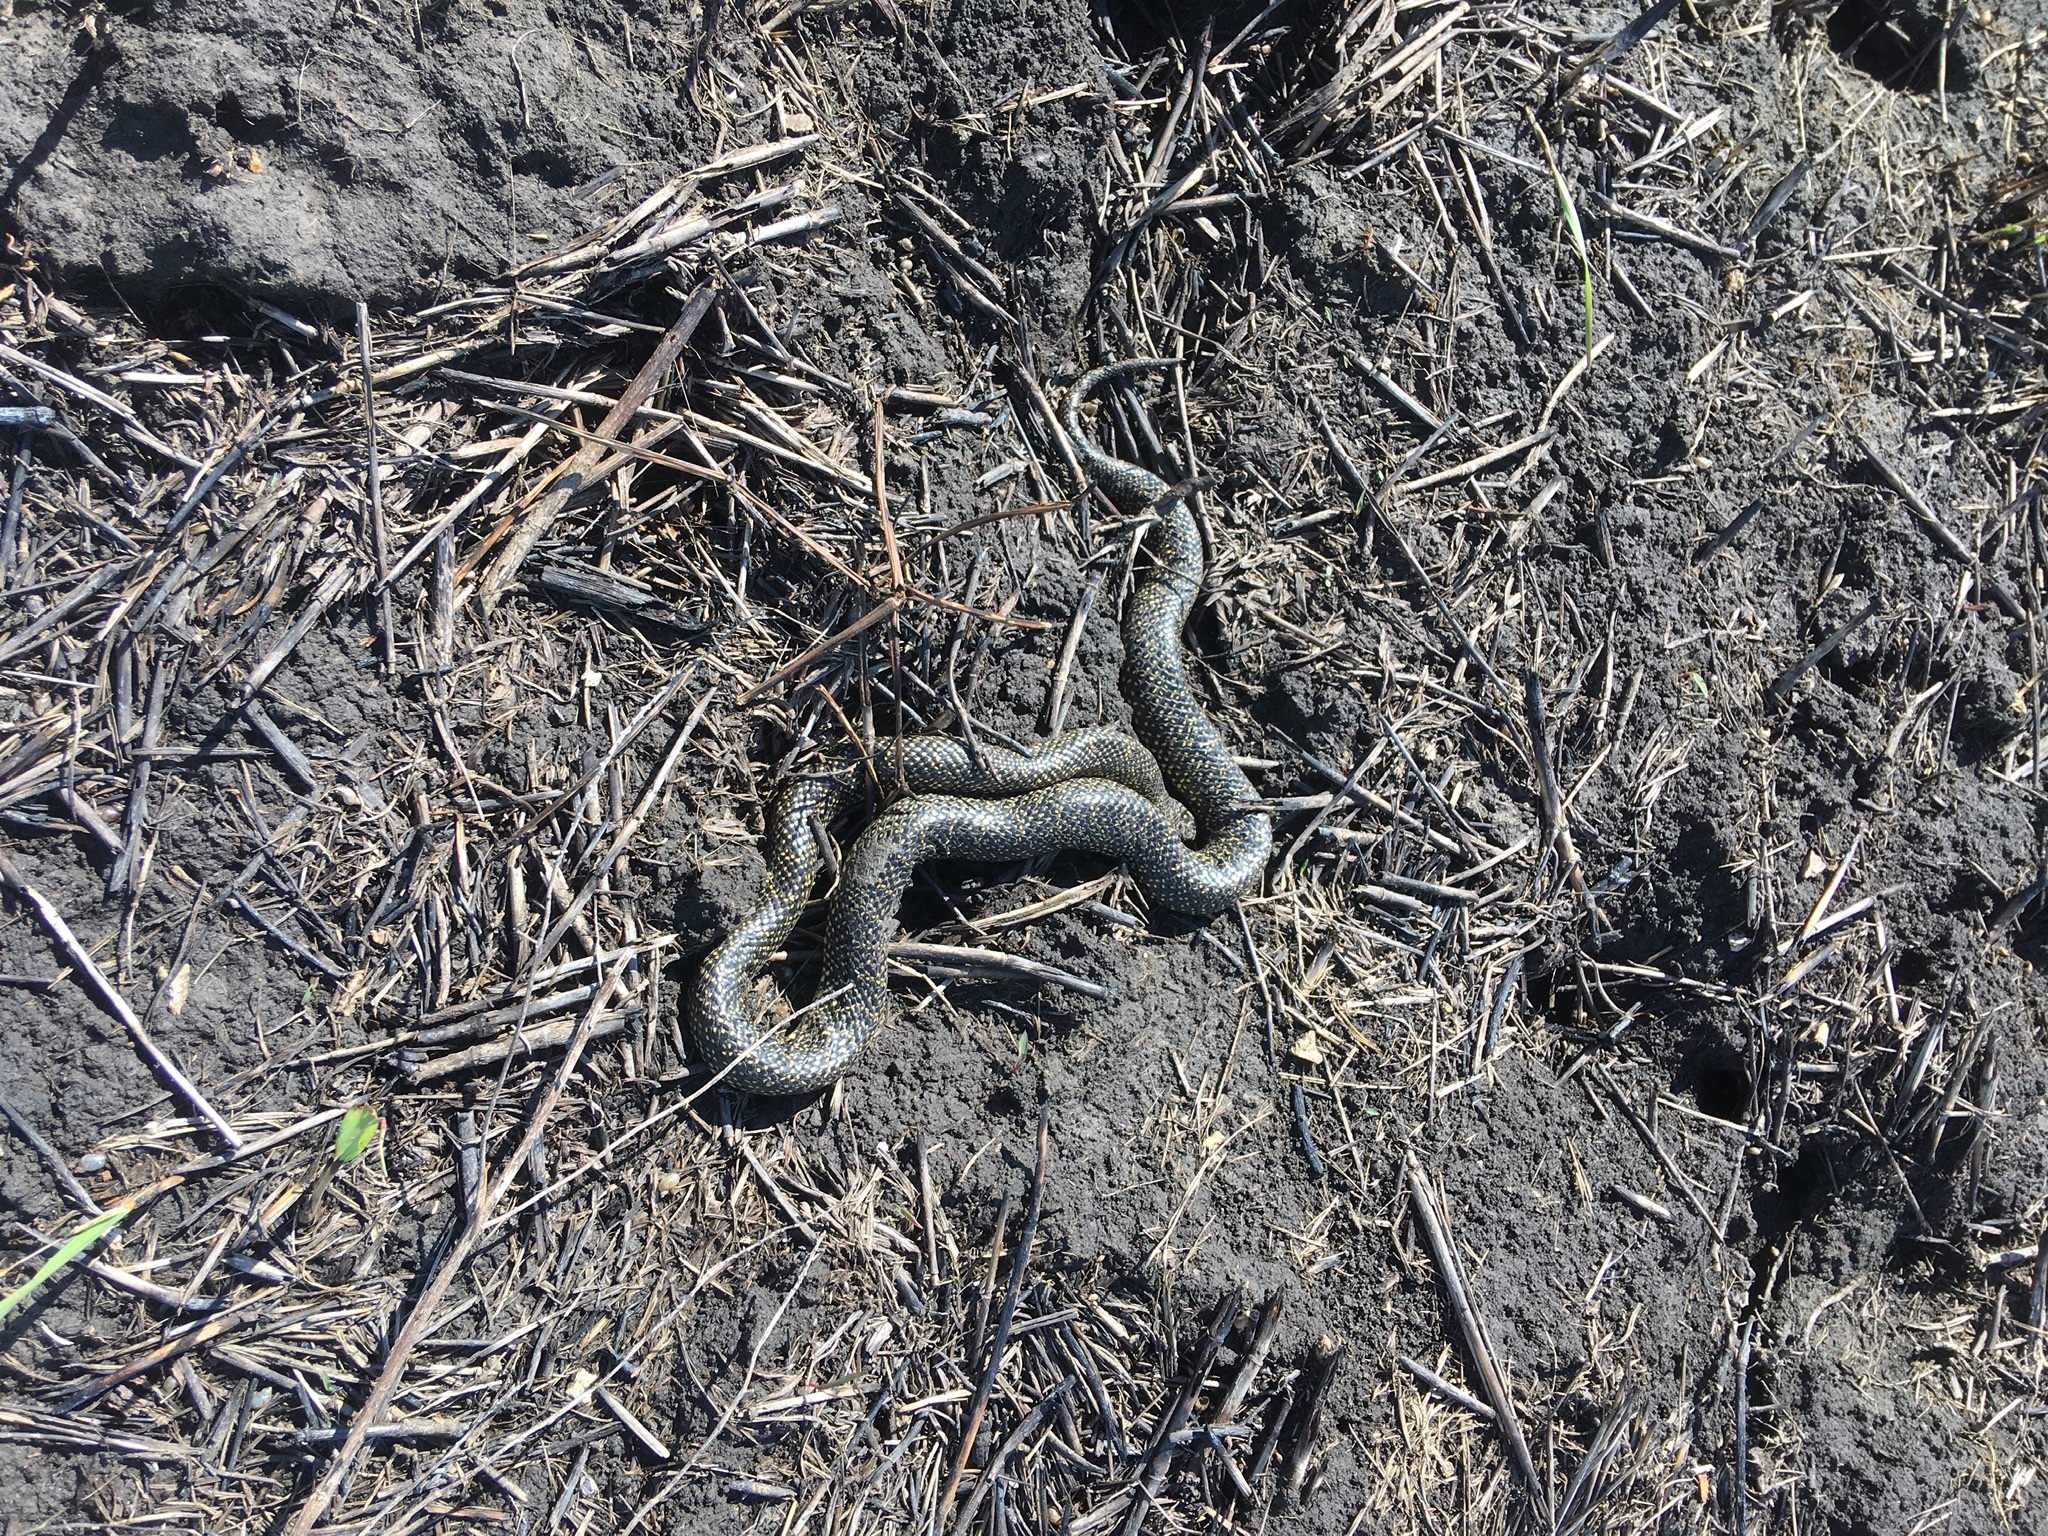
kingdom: Animalia
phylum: Chordata
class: Squamata
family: Colubridae
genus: Lampropeltis
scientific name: Lampropeltis holbrooki
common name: Speckled kingsnake
